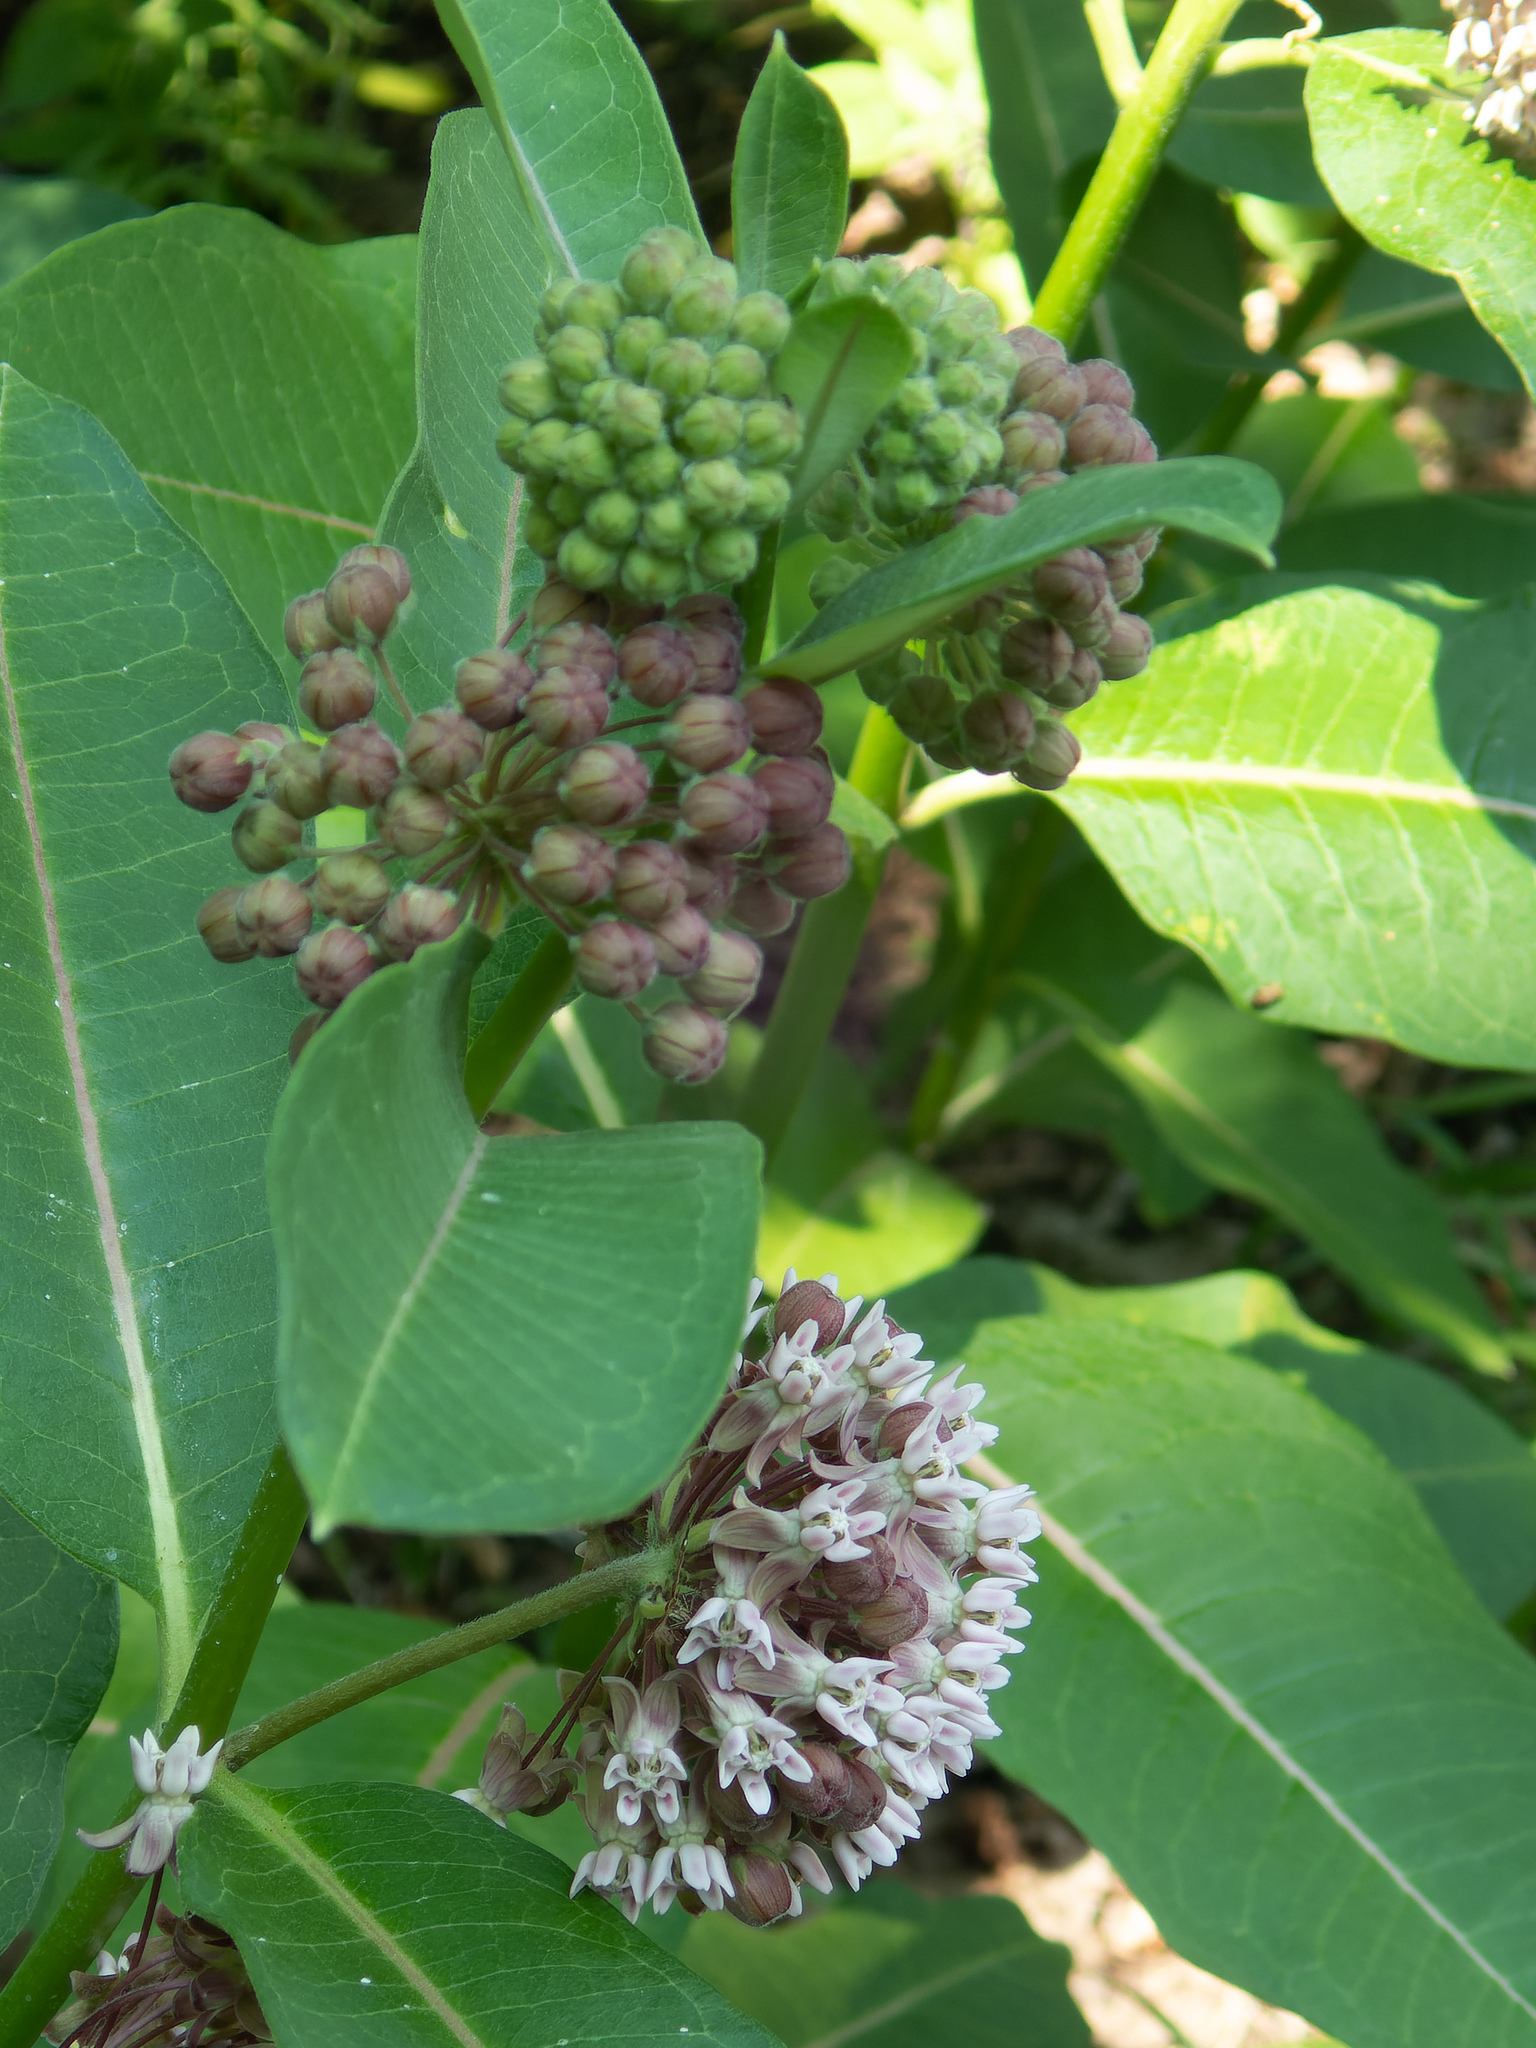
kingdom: Plantae
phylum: Tracheophyta
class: Magnoliopsida
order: Gentianales
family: Apocynaceae
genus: Asclepias
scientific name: Asclepias syriaca
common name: Common milkweed
